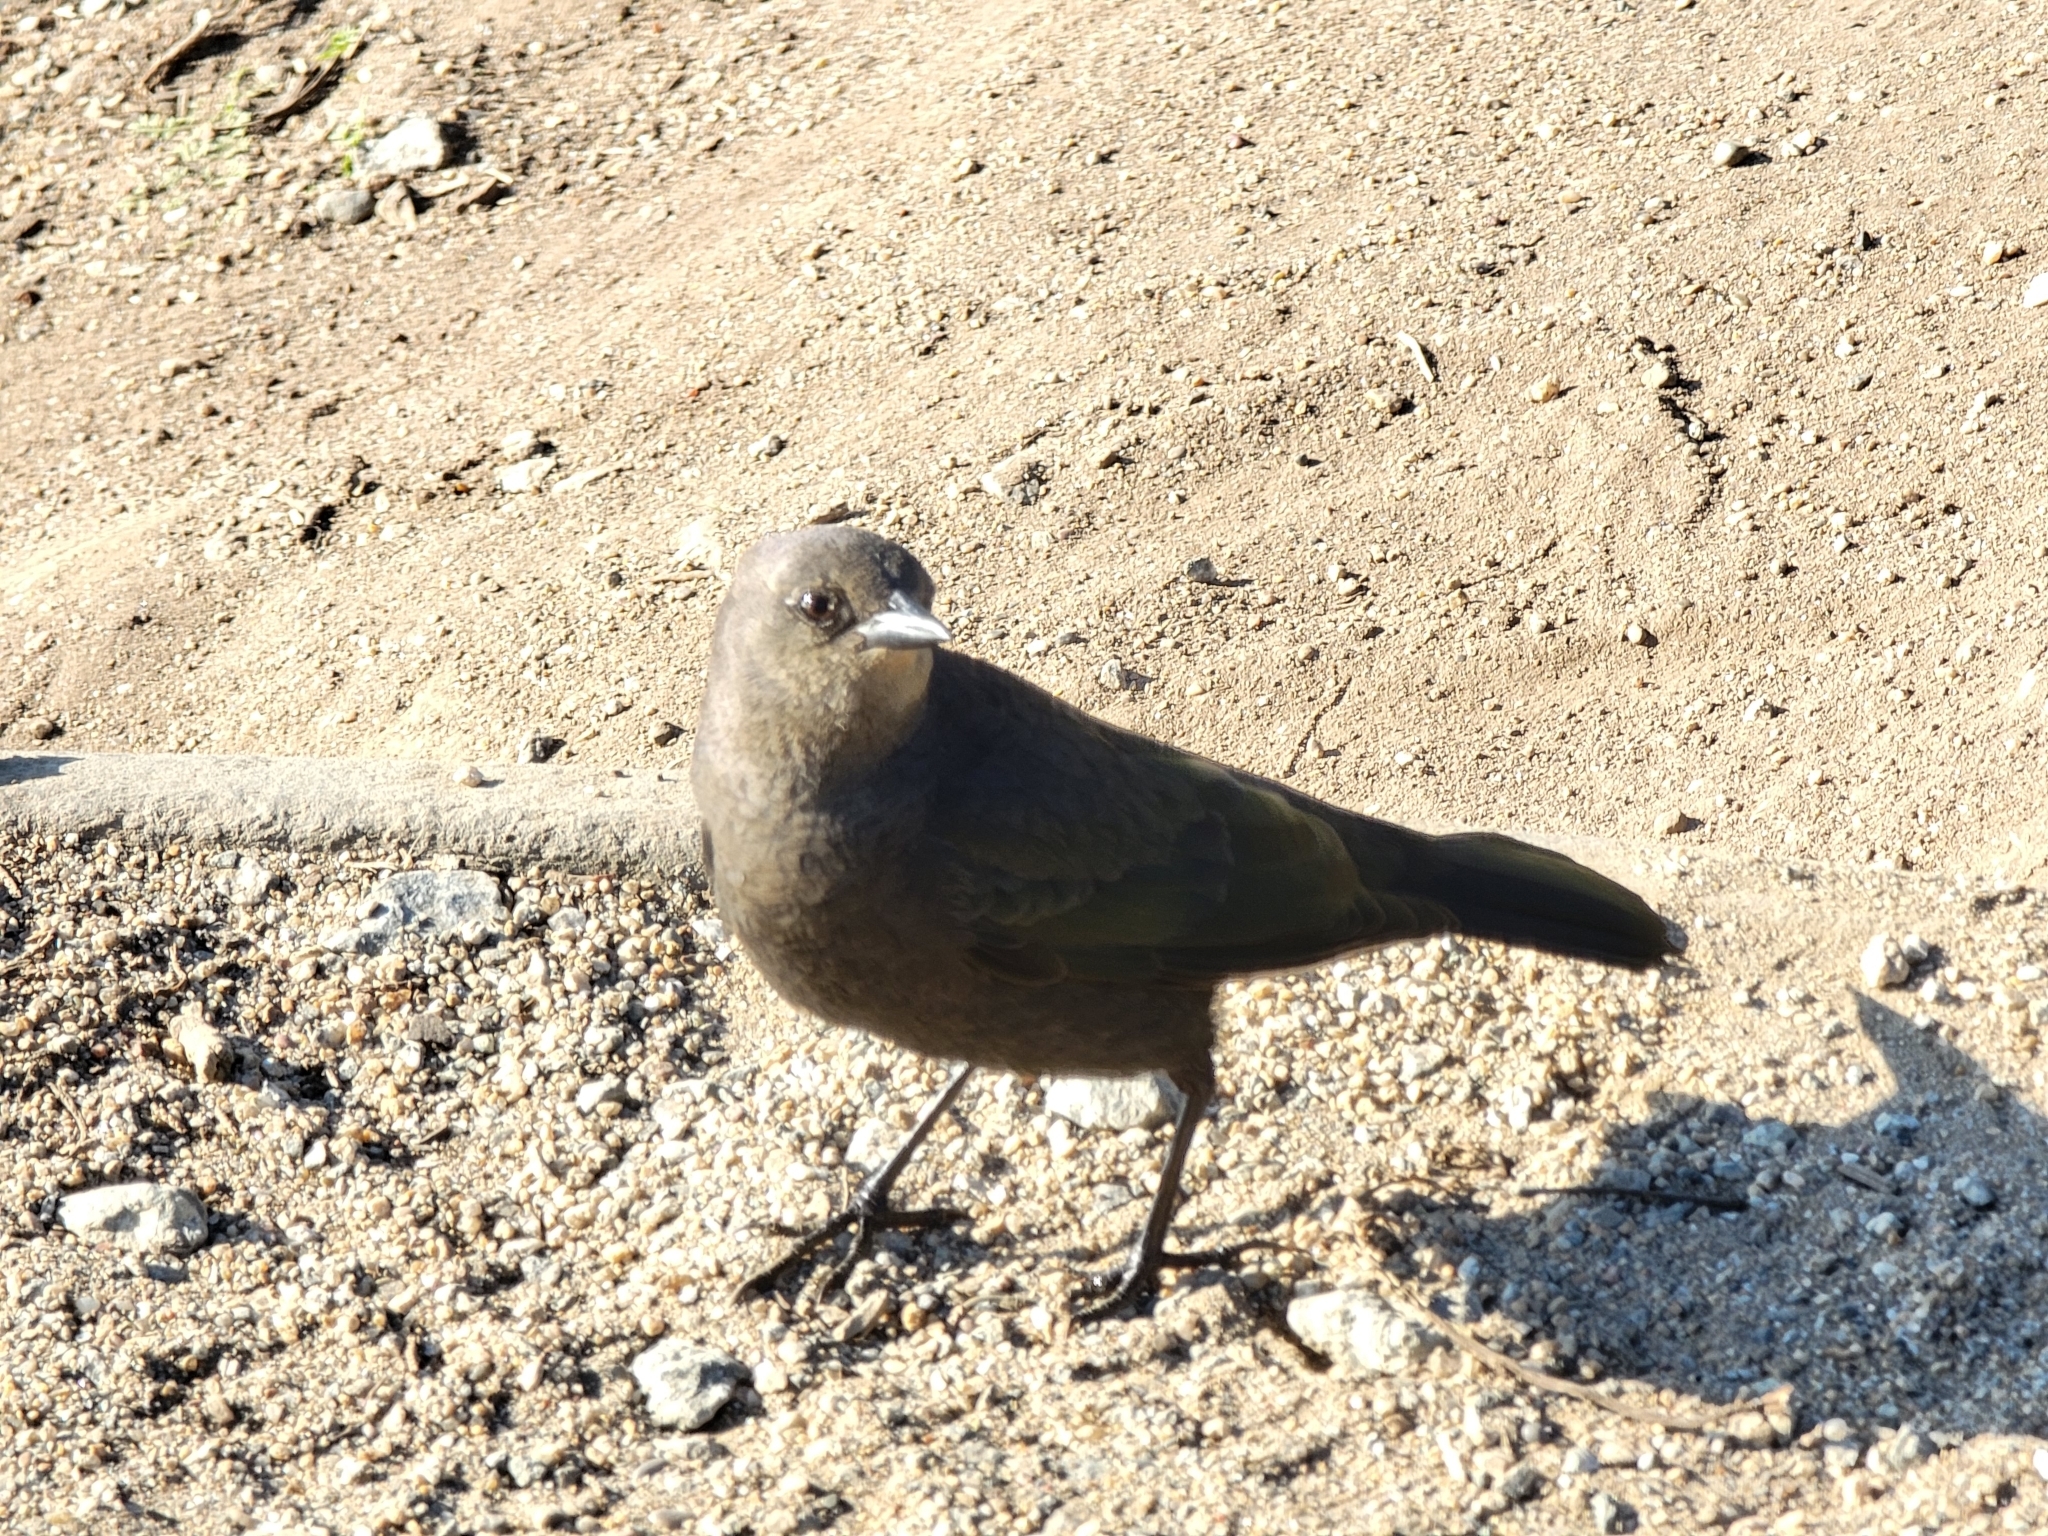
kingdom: Animalia
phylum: Chordata
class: Aves
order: Passeriformes
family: Icteridae
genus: Euphagus
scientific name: Euphagus cyanocephalus
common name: Brewer's blackbird
